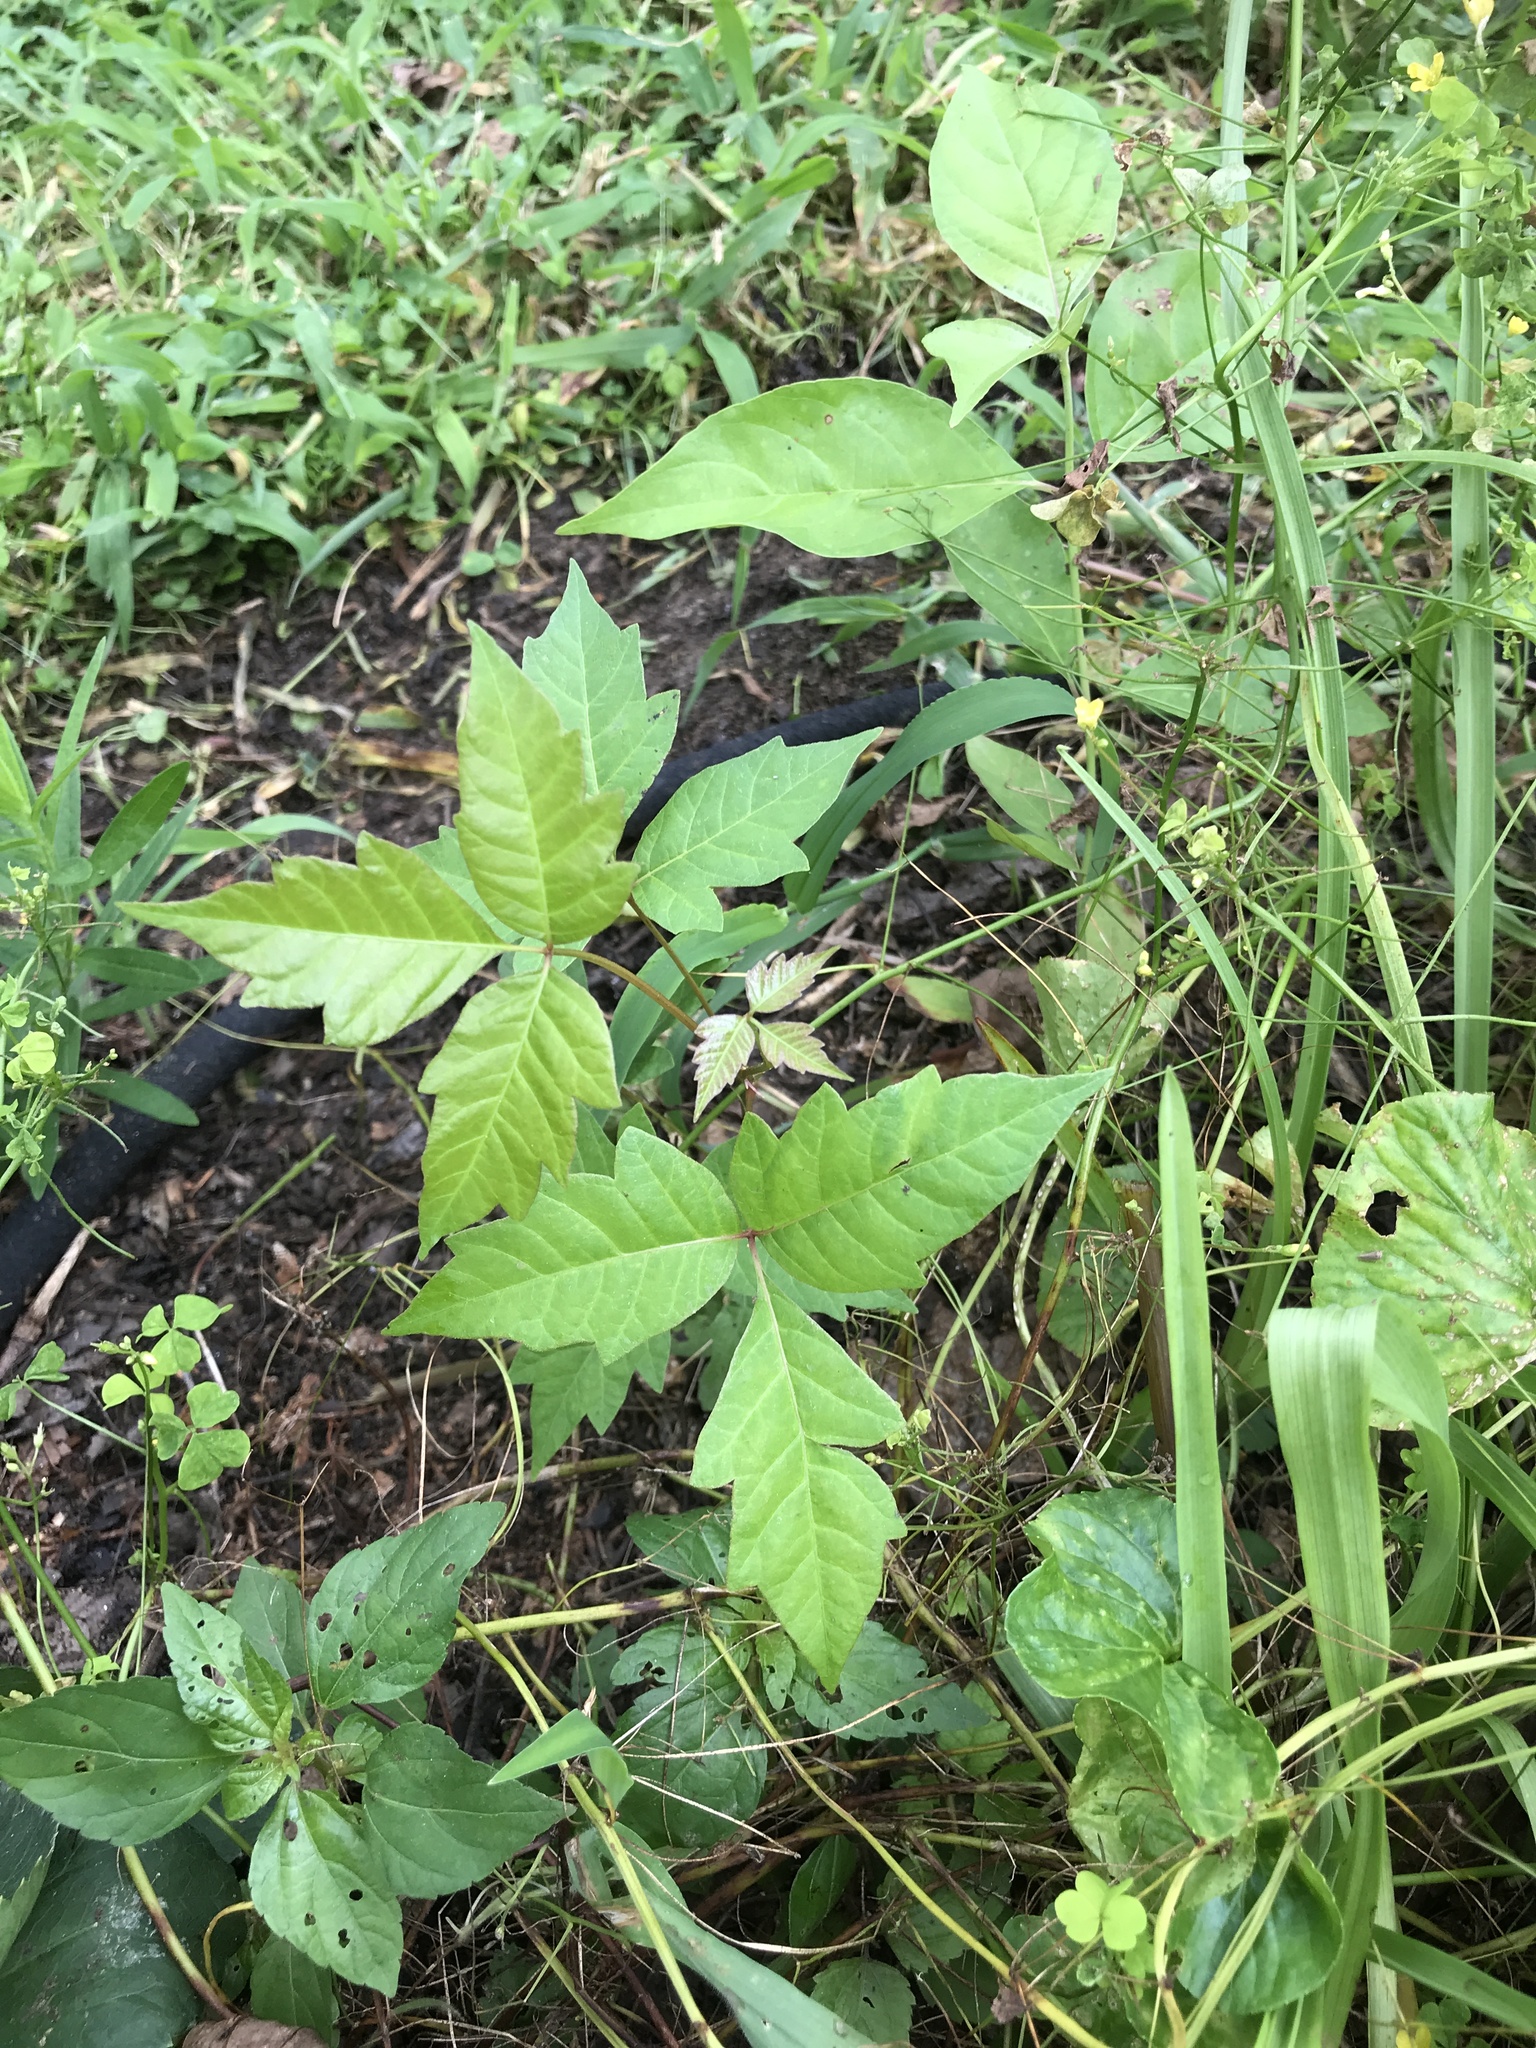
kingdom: Plantae
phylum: Tracheophyta
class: Magnoliopsida
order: Sapindales
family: Anacardiaceae
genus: Toxicodendron
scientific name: Toxicodendron radicans
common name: Poison ivy
